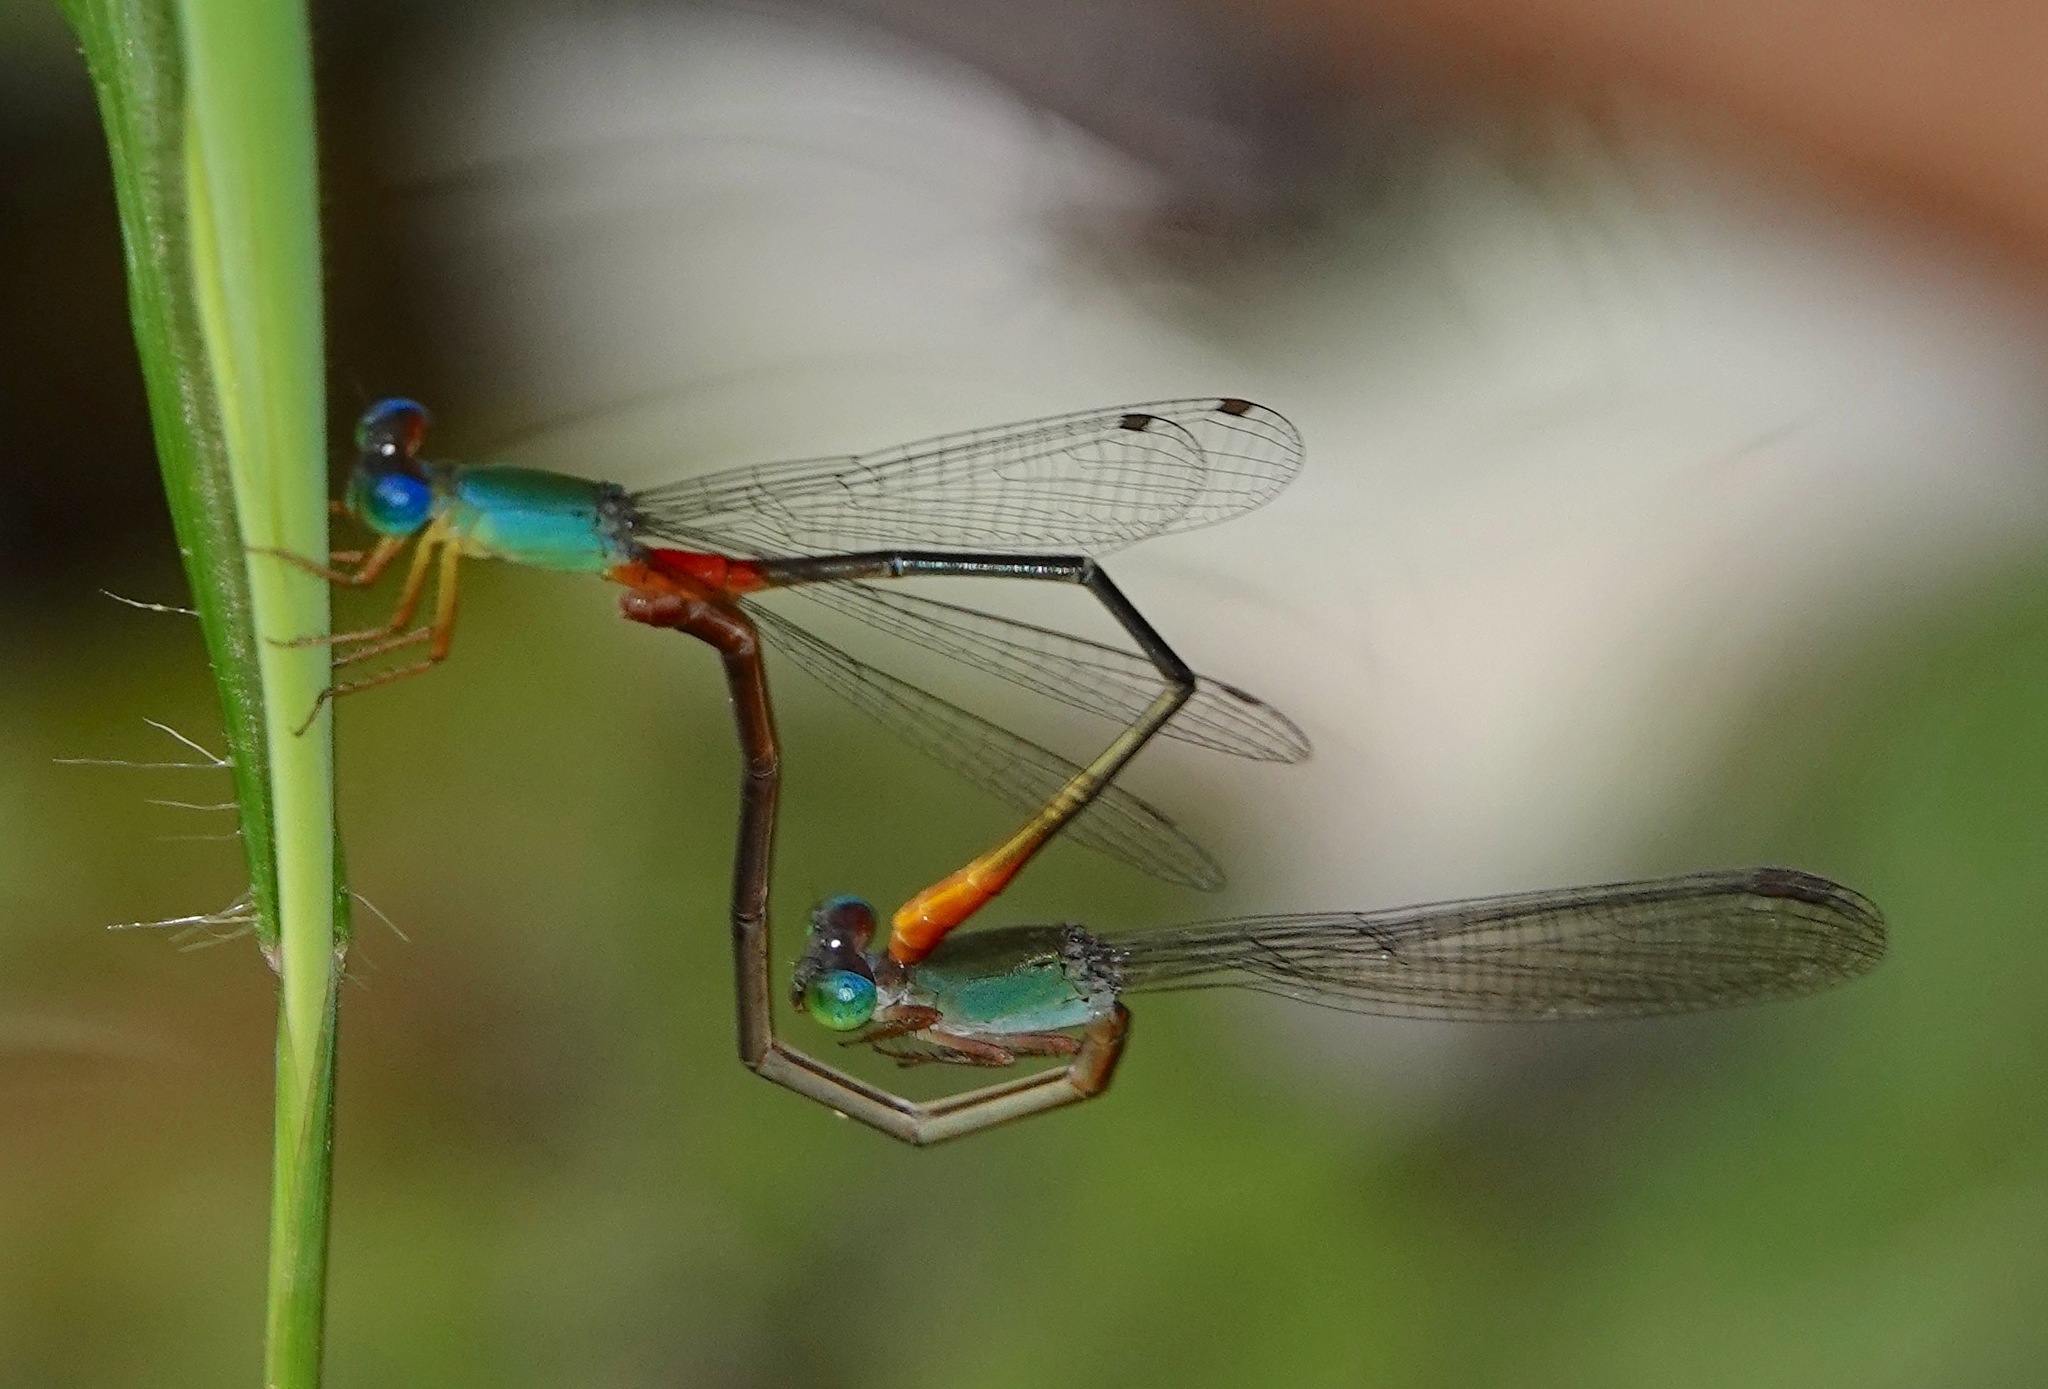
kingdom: Animalia
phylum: Arthropoda
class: Insecta
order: Odonata
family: Coenagrionidae
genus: Ceriagrion
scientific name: Ceriagrion cerinorubellum
